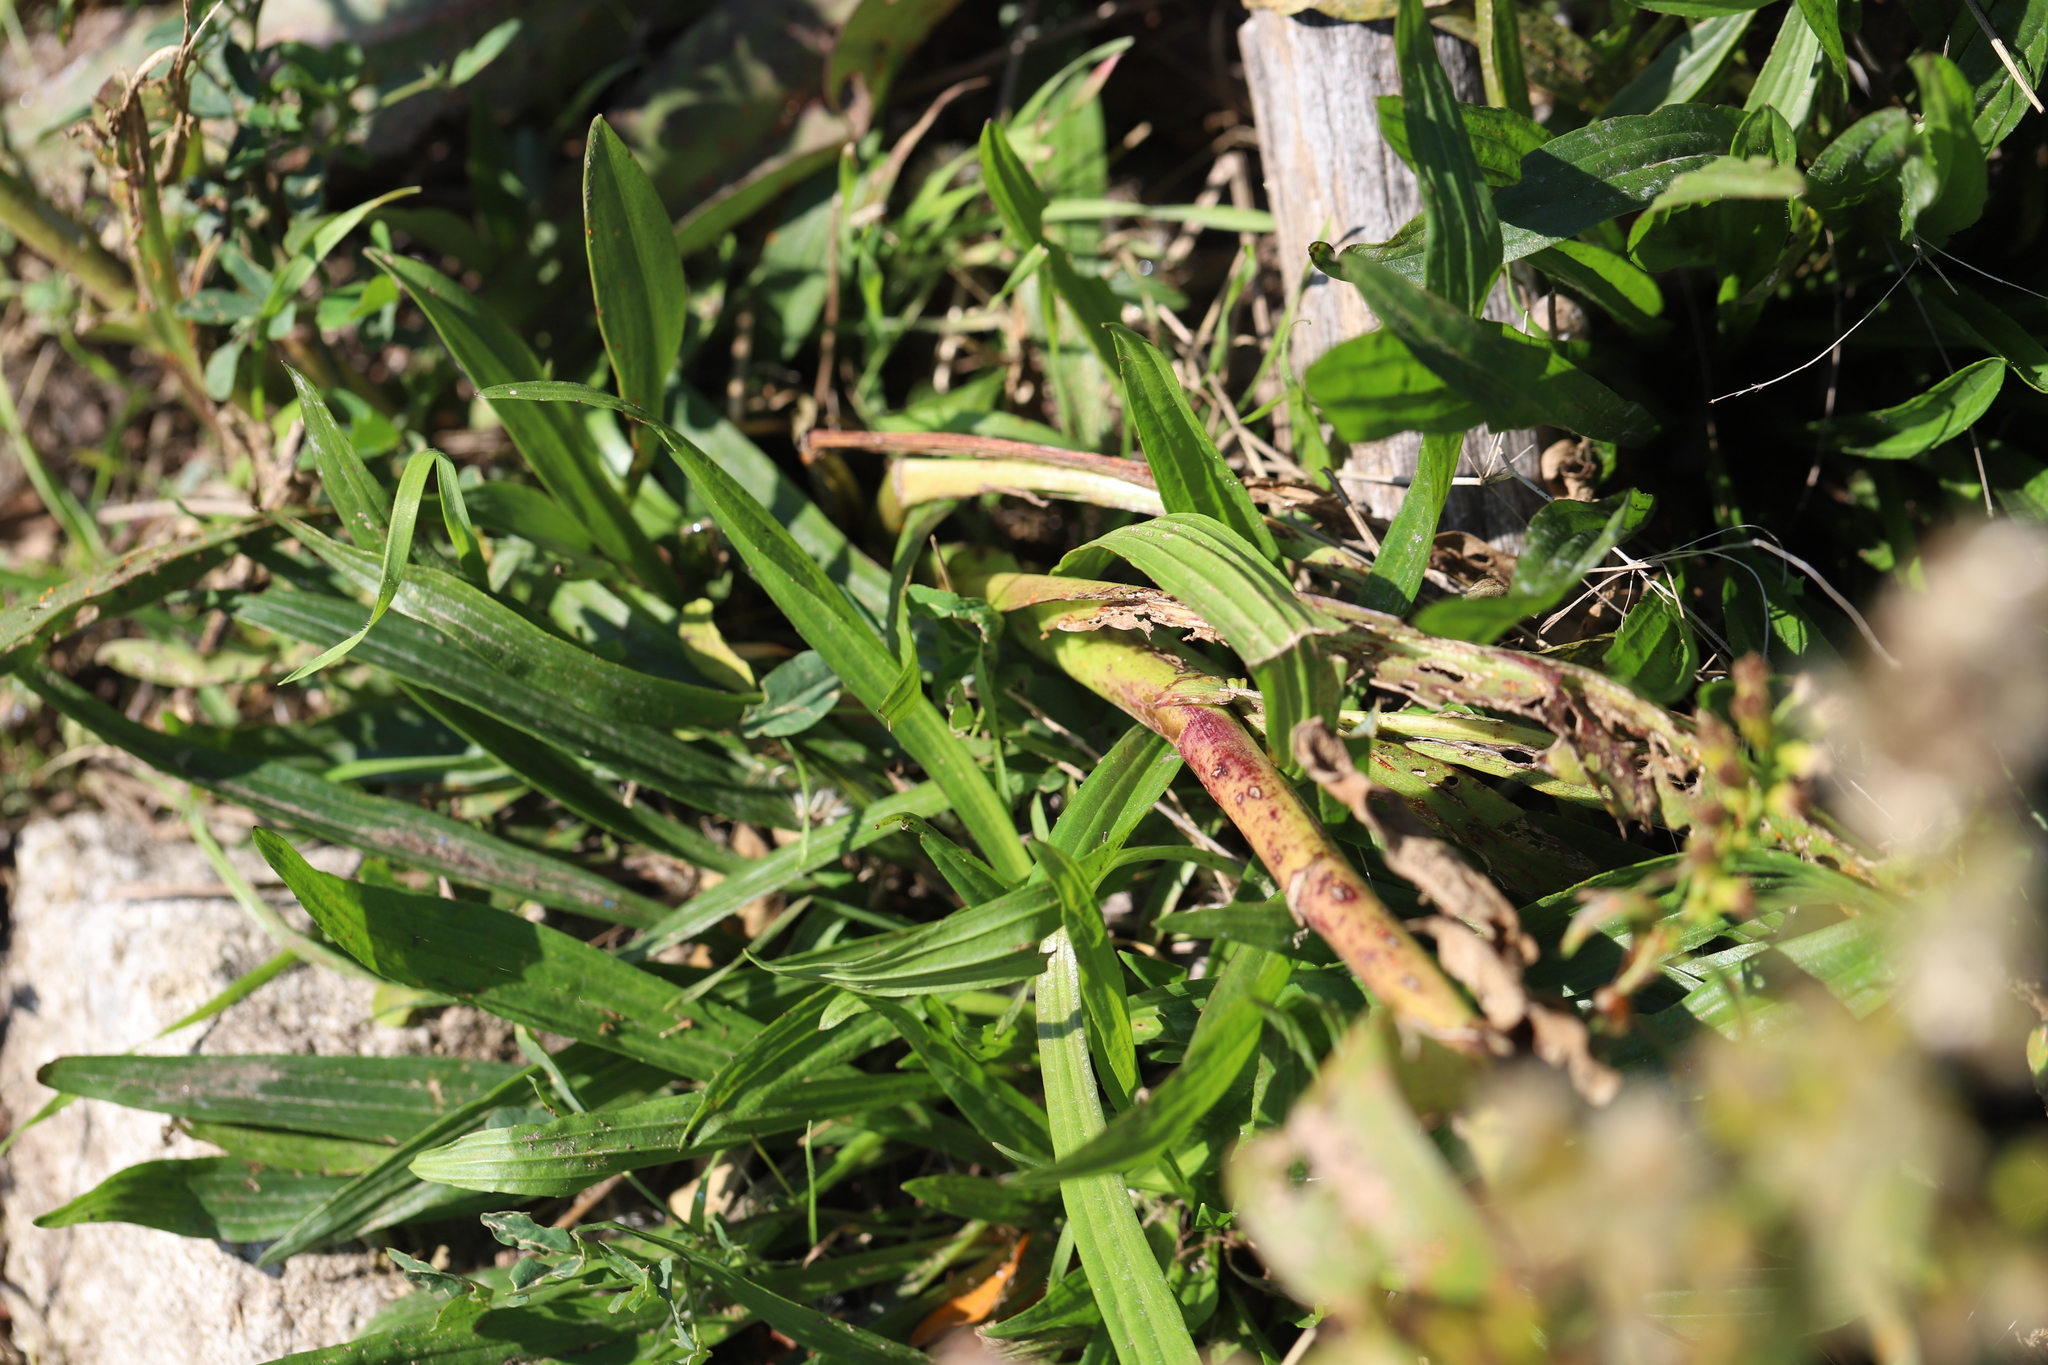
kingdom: Plantae
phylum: Tracheophyta
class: Magnoliopsida
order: Asterales
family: Asteraceae
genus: Solidago
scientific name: Solidago sempervirens
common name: Salt-marsh goldenrod
